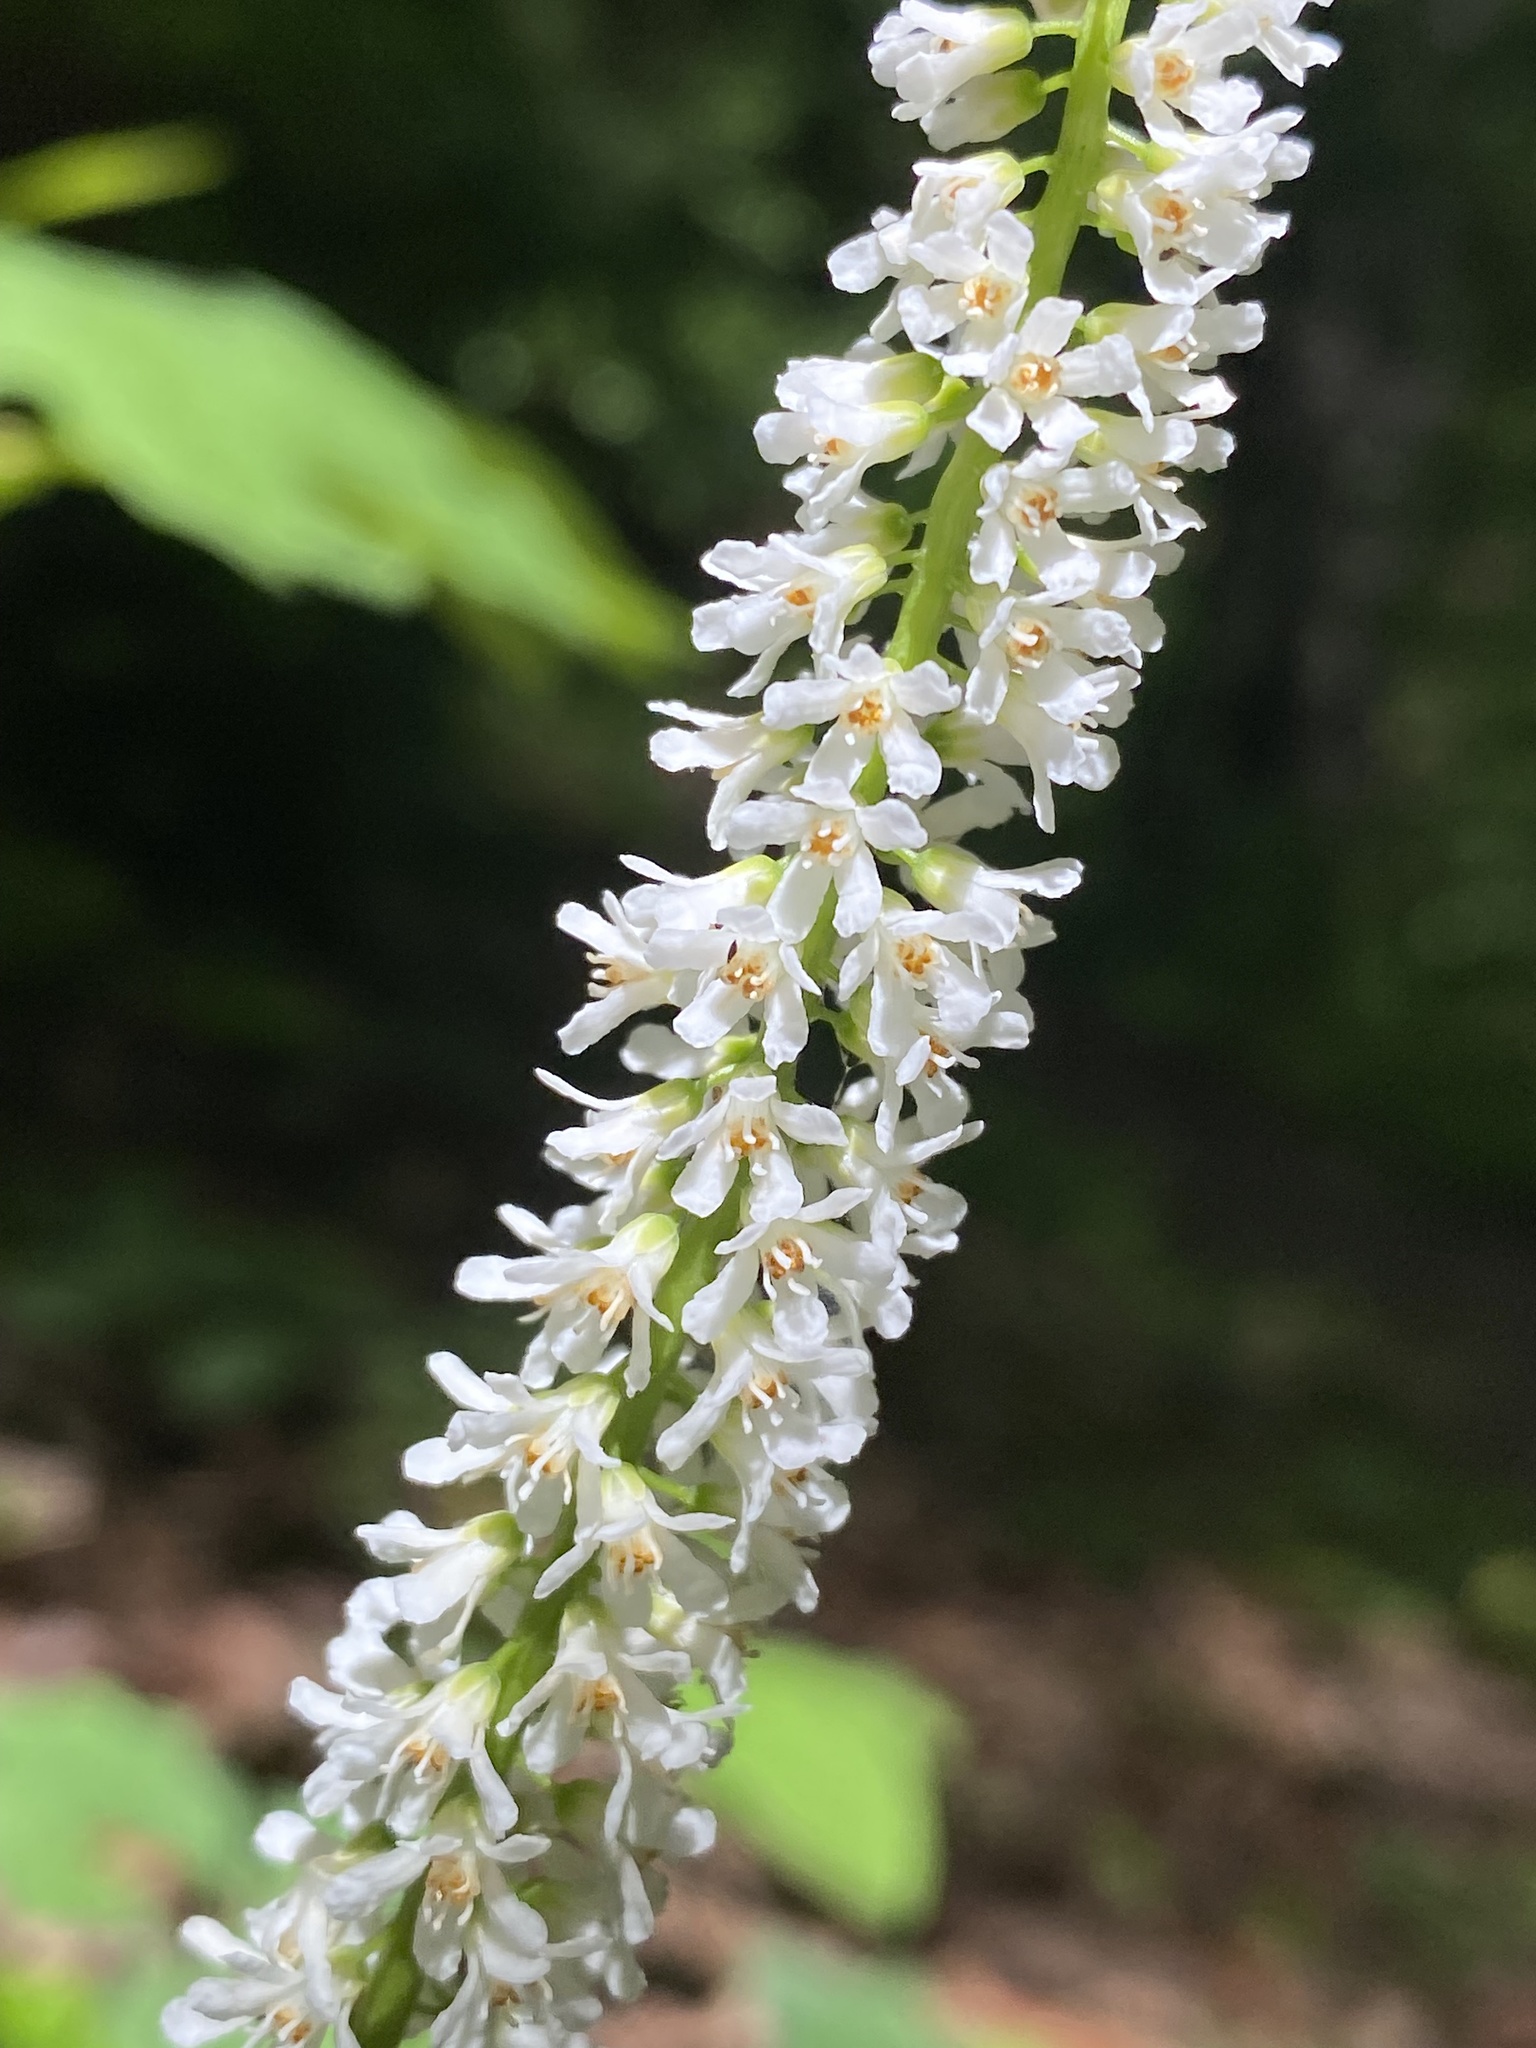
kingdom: Plantae
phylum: Tracheophyta
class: Magnoliopsida
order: Ericales
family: Diapensiaceae
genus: Galax
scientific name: Galax urceolata
